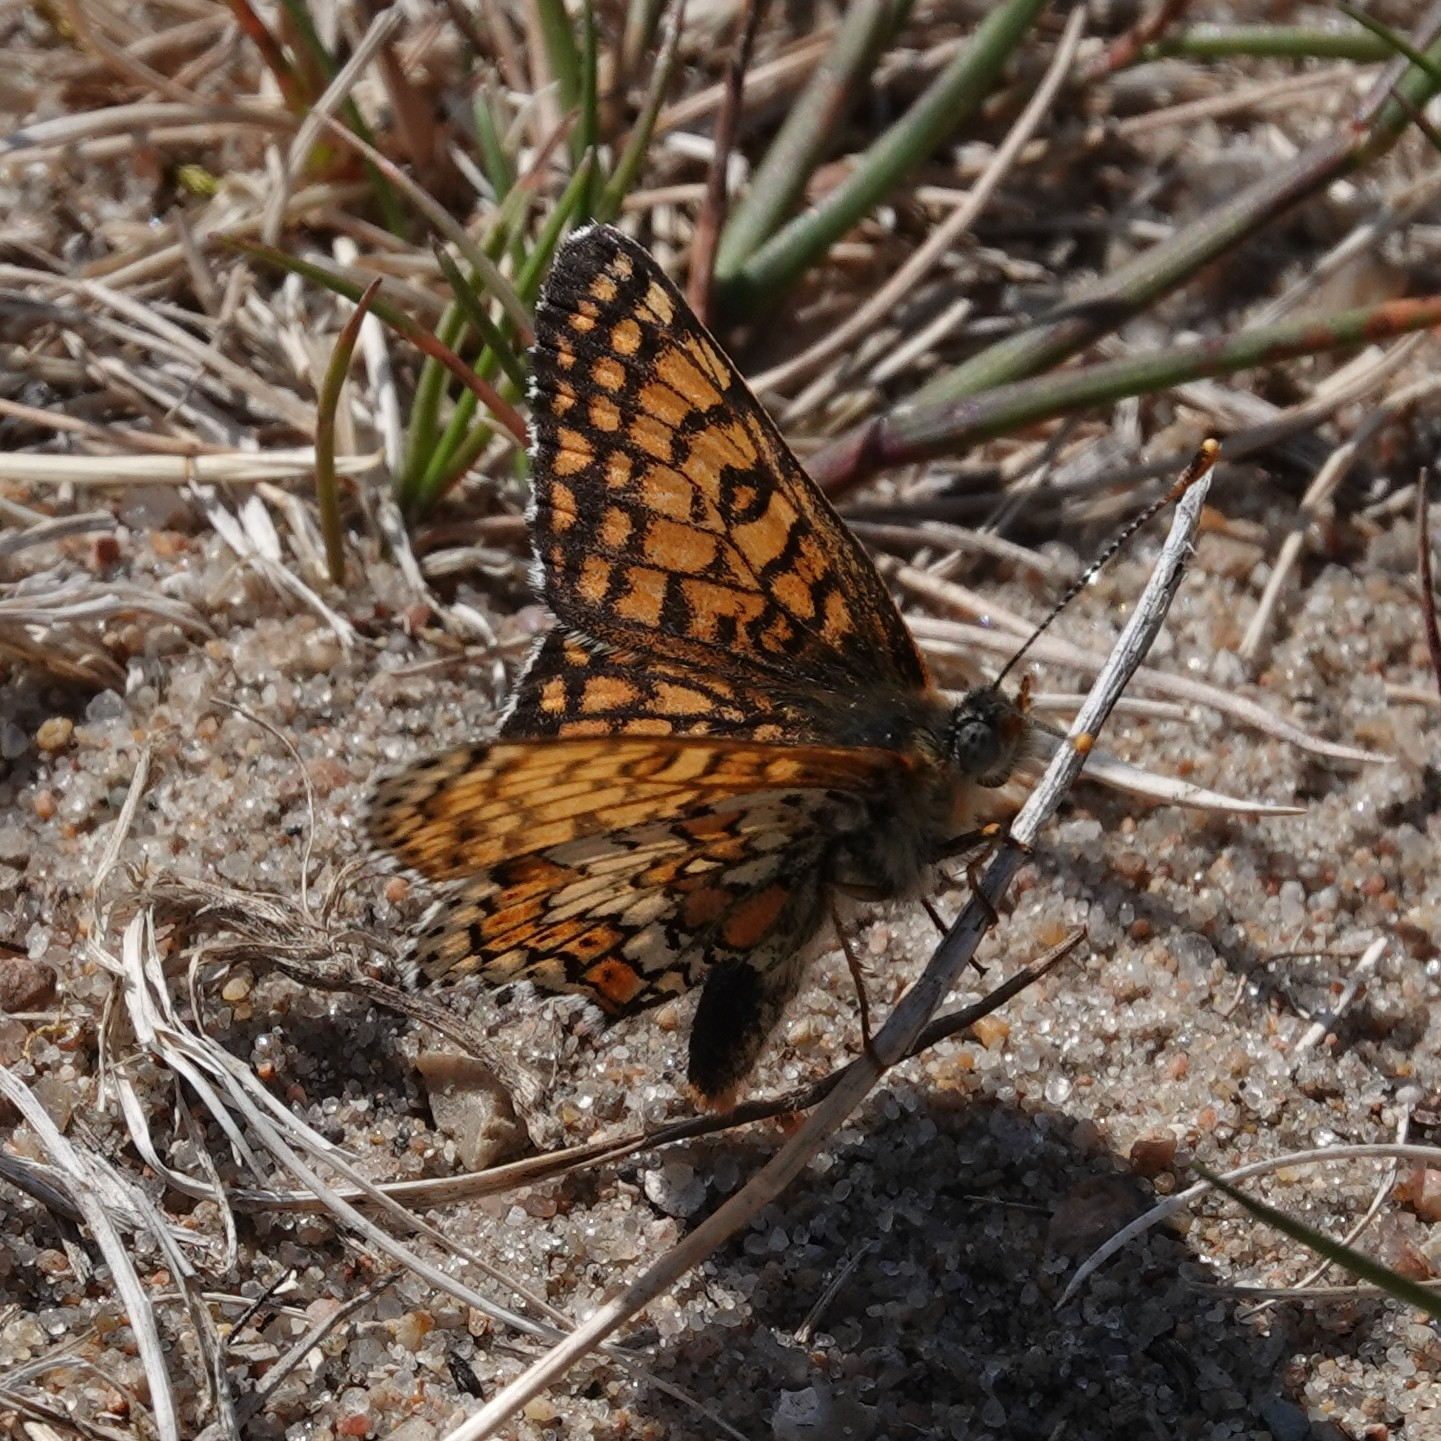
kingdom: Animalia
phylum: Arthropoda
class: Insecta
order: Lepidoptera
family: Nymphalidae
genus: Melitaea
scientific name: Melitaea cinxia
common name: Glanville fritillary
